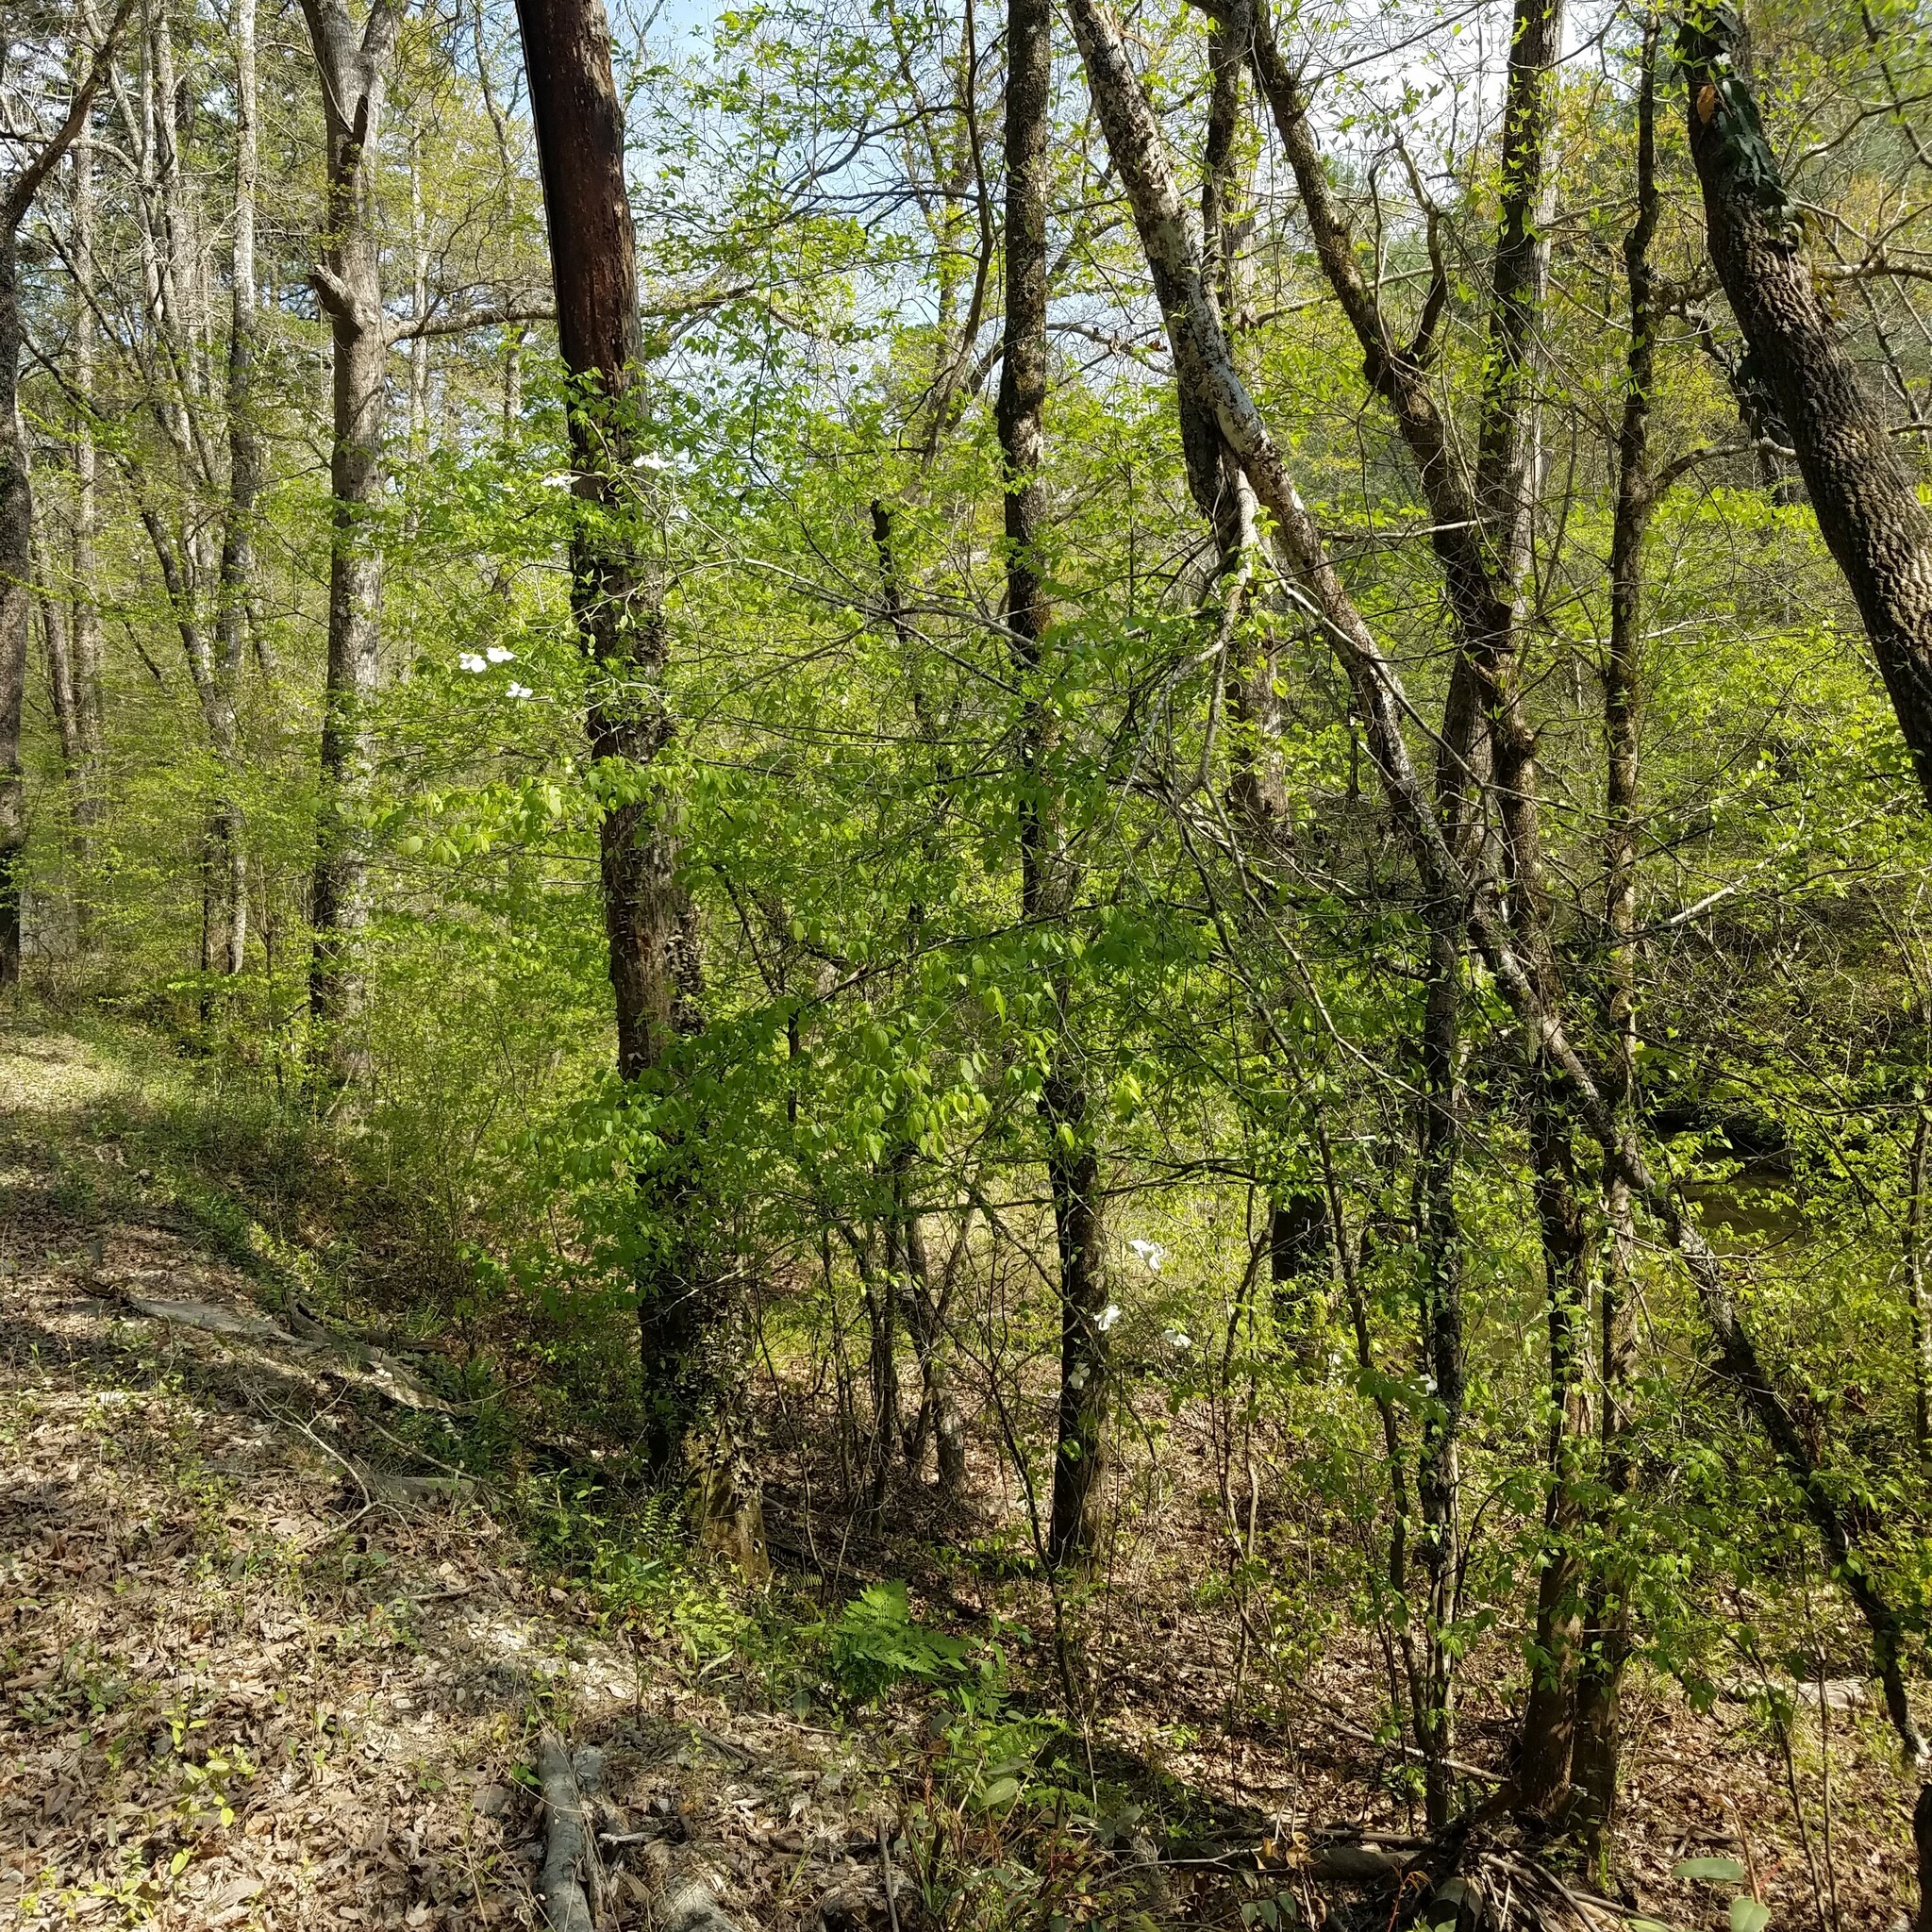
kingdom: Plantae
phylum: Tracheophyta
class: Magnoliopsida
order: Cornales
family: Cornaceae
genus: Cornus
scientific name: Cornus florida
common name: Flowering dogwood
